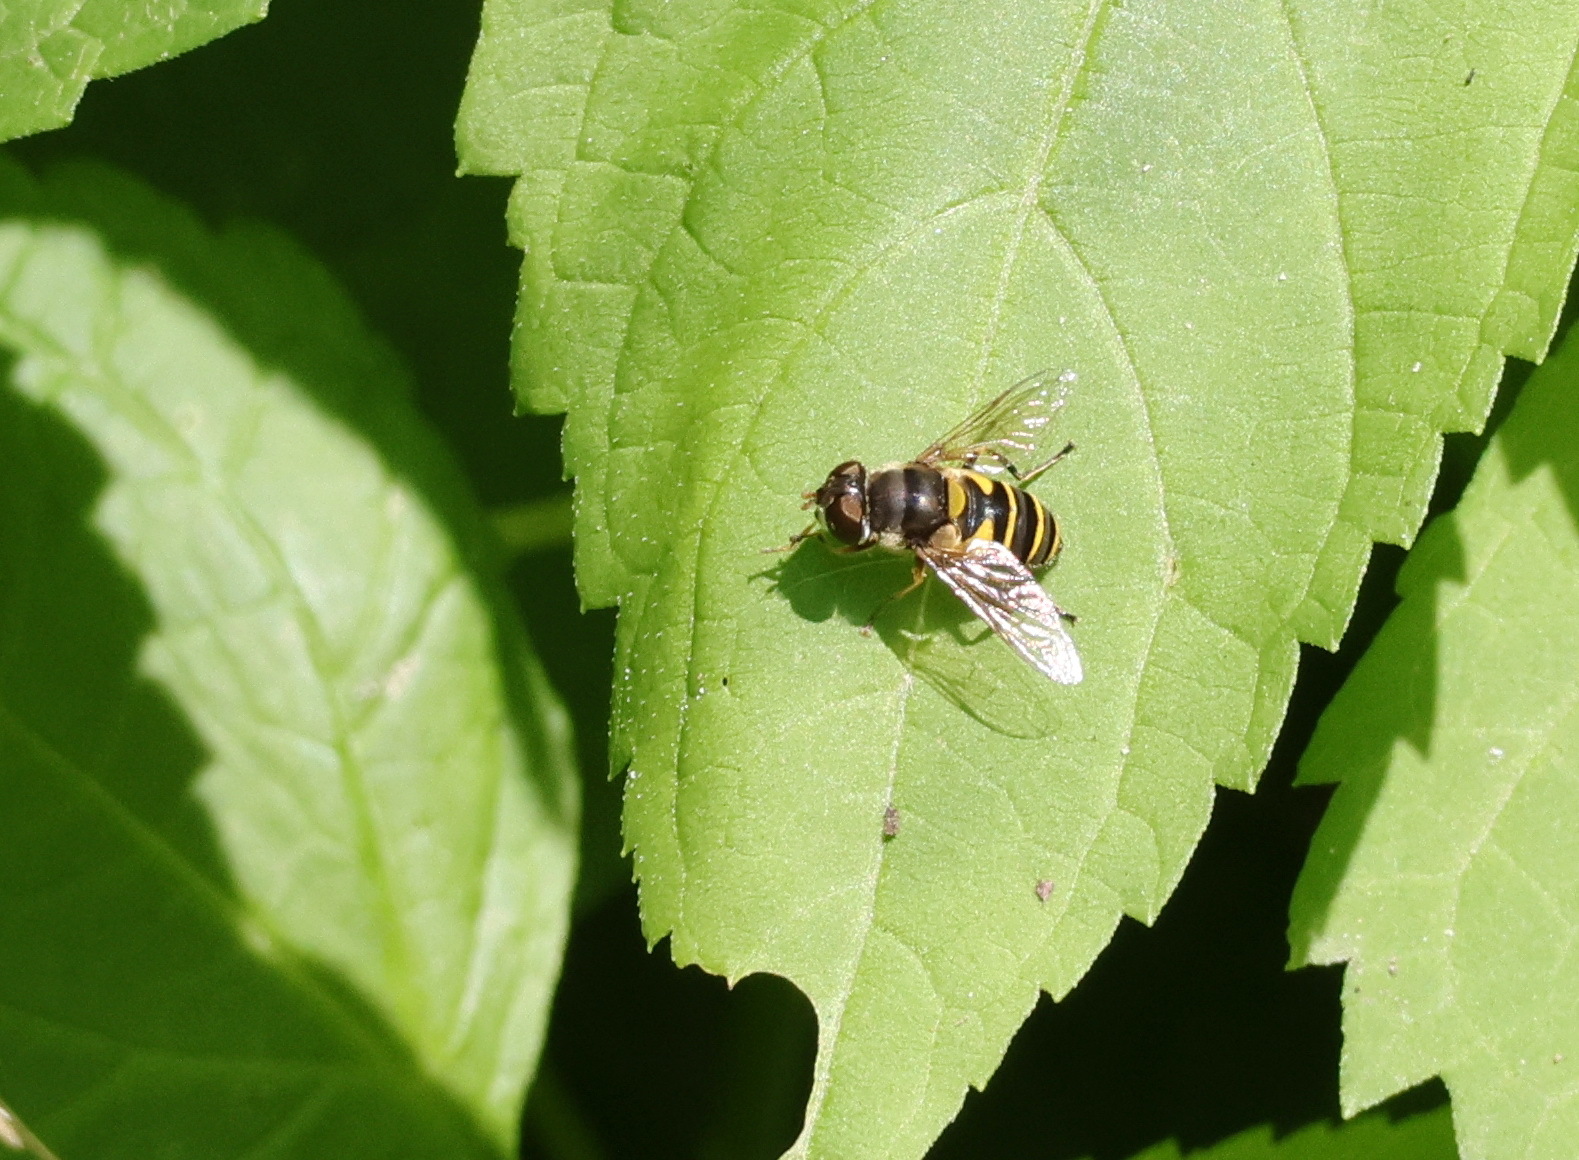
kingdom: Animalia
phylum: Arthropoda
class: Insecta
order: Diptera
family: Syrphidae
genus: Eristalis
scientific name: Eristalis transversa
